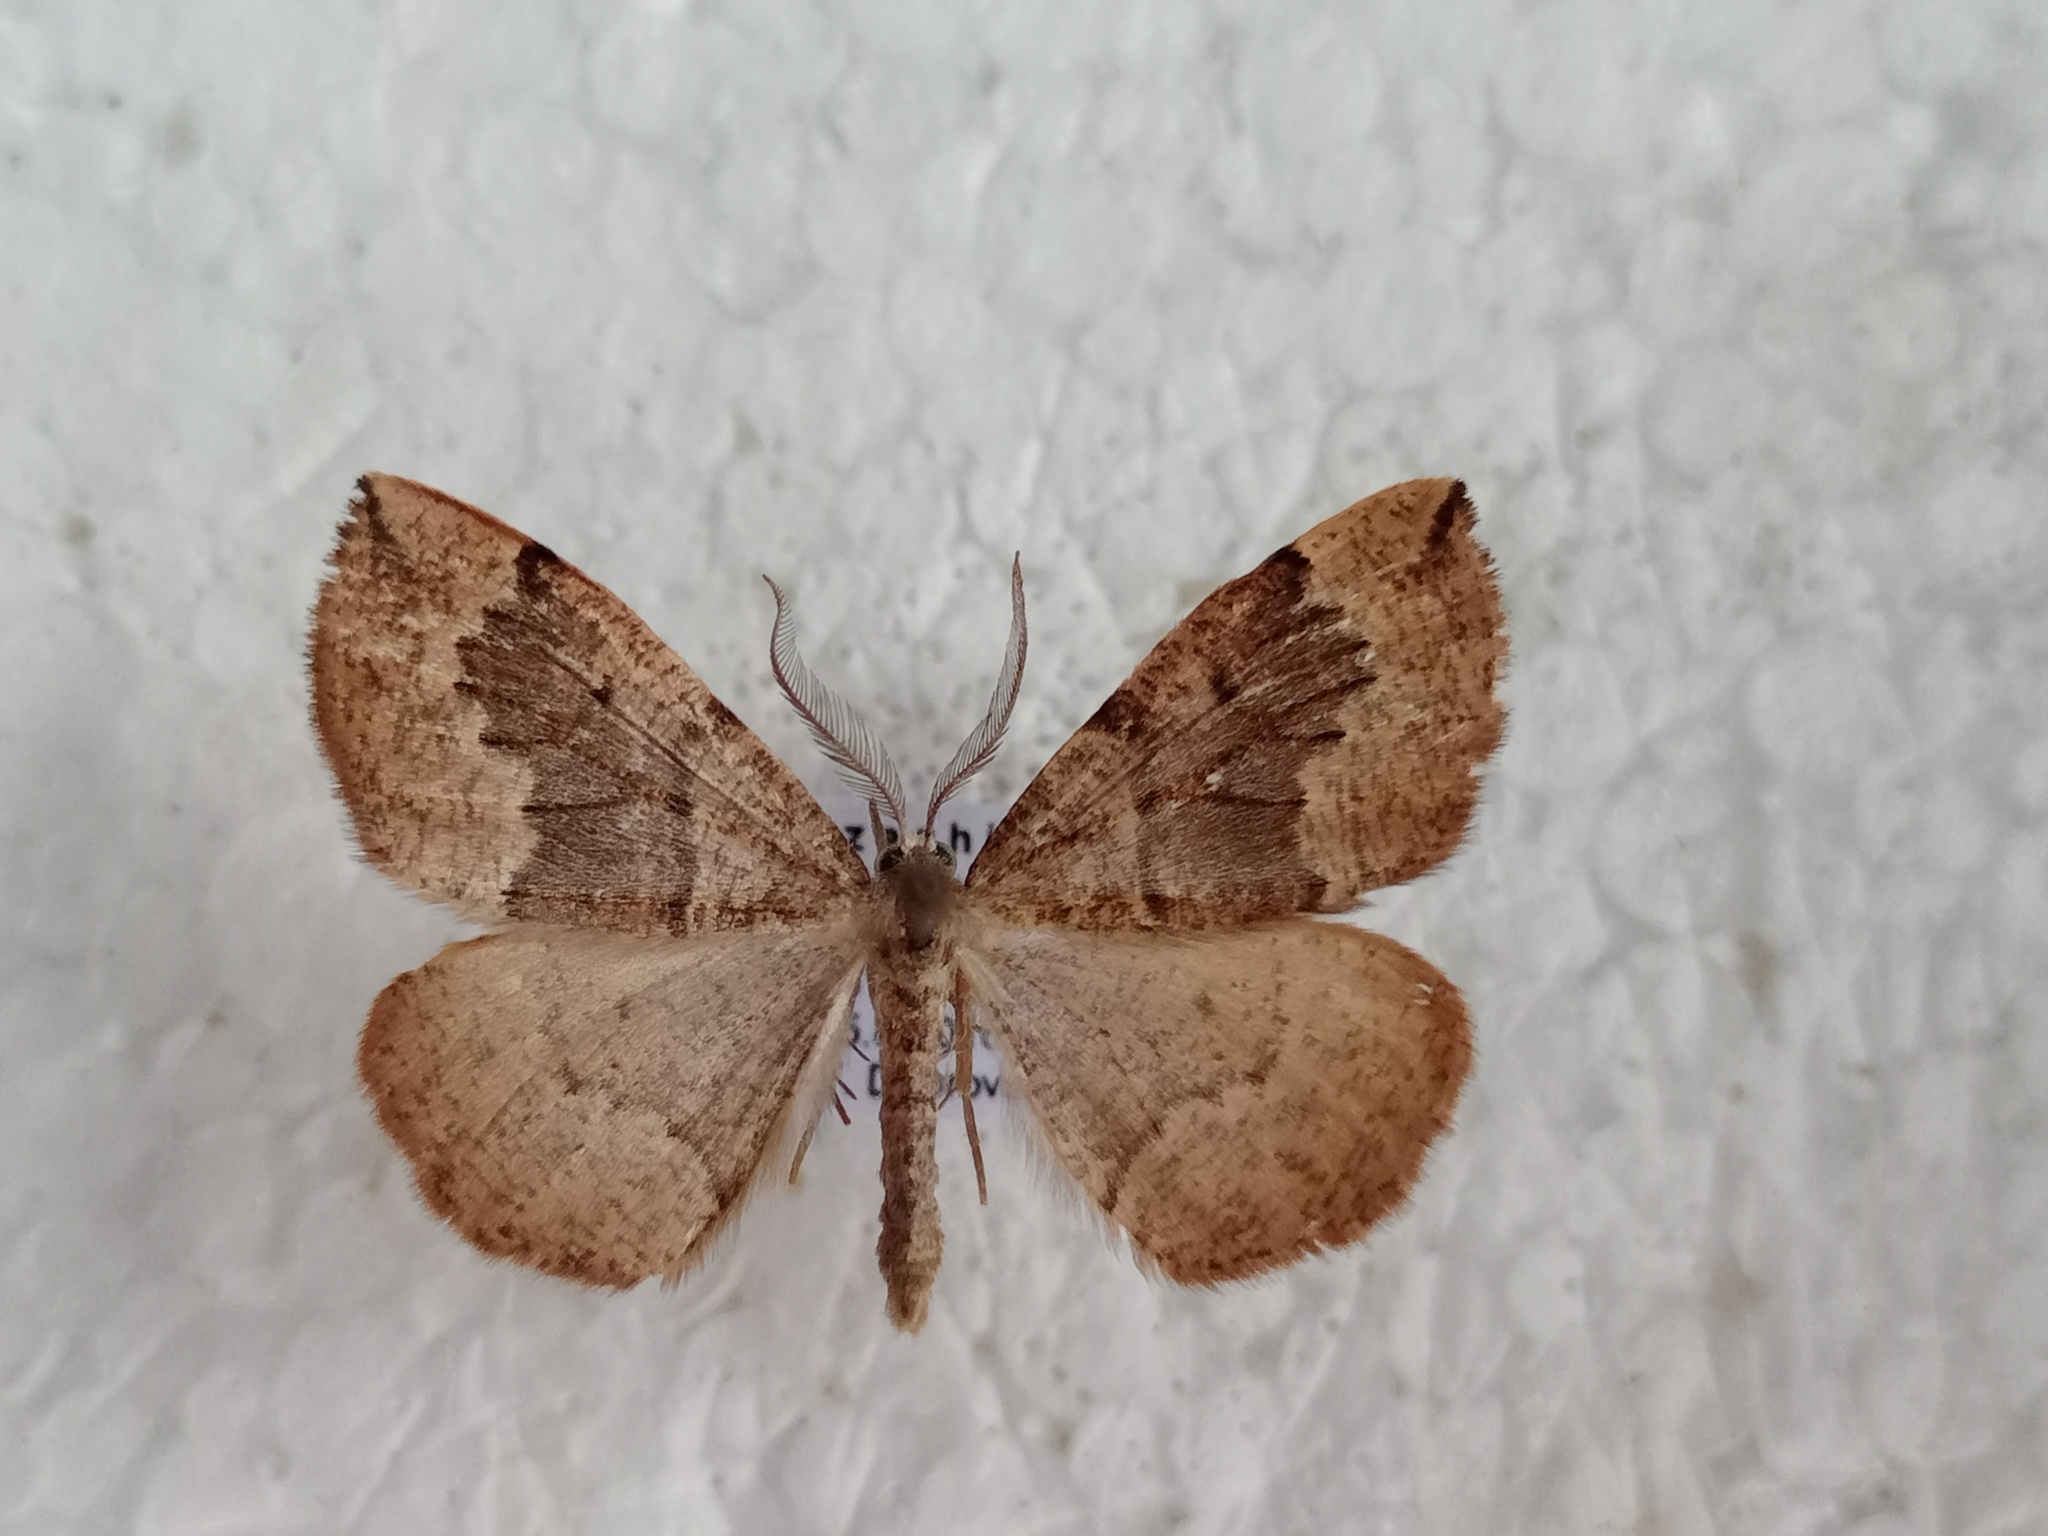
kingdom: Animalia
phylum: Arthropoda
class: Insecta
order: Lepidoptera
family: Geometridae
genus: Pungeleria
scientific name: Pungeleria capreolaria
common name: Banded pine carpet
